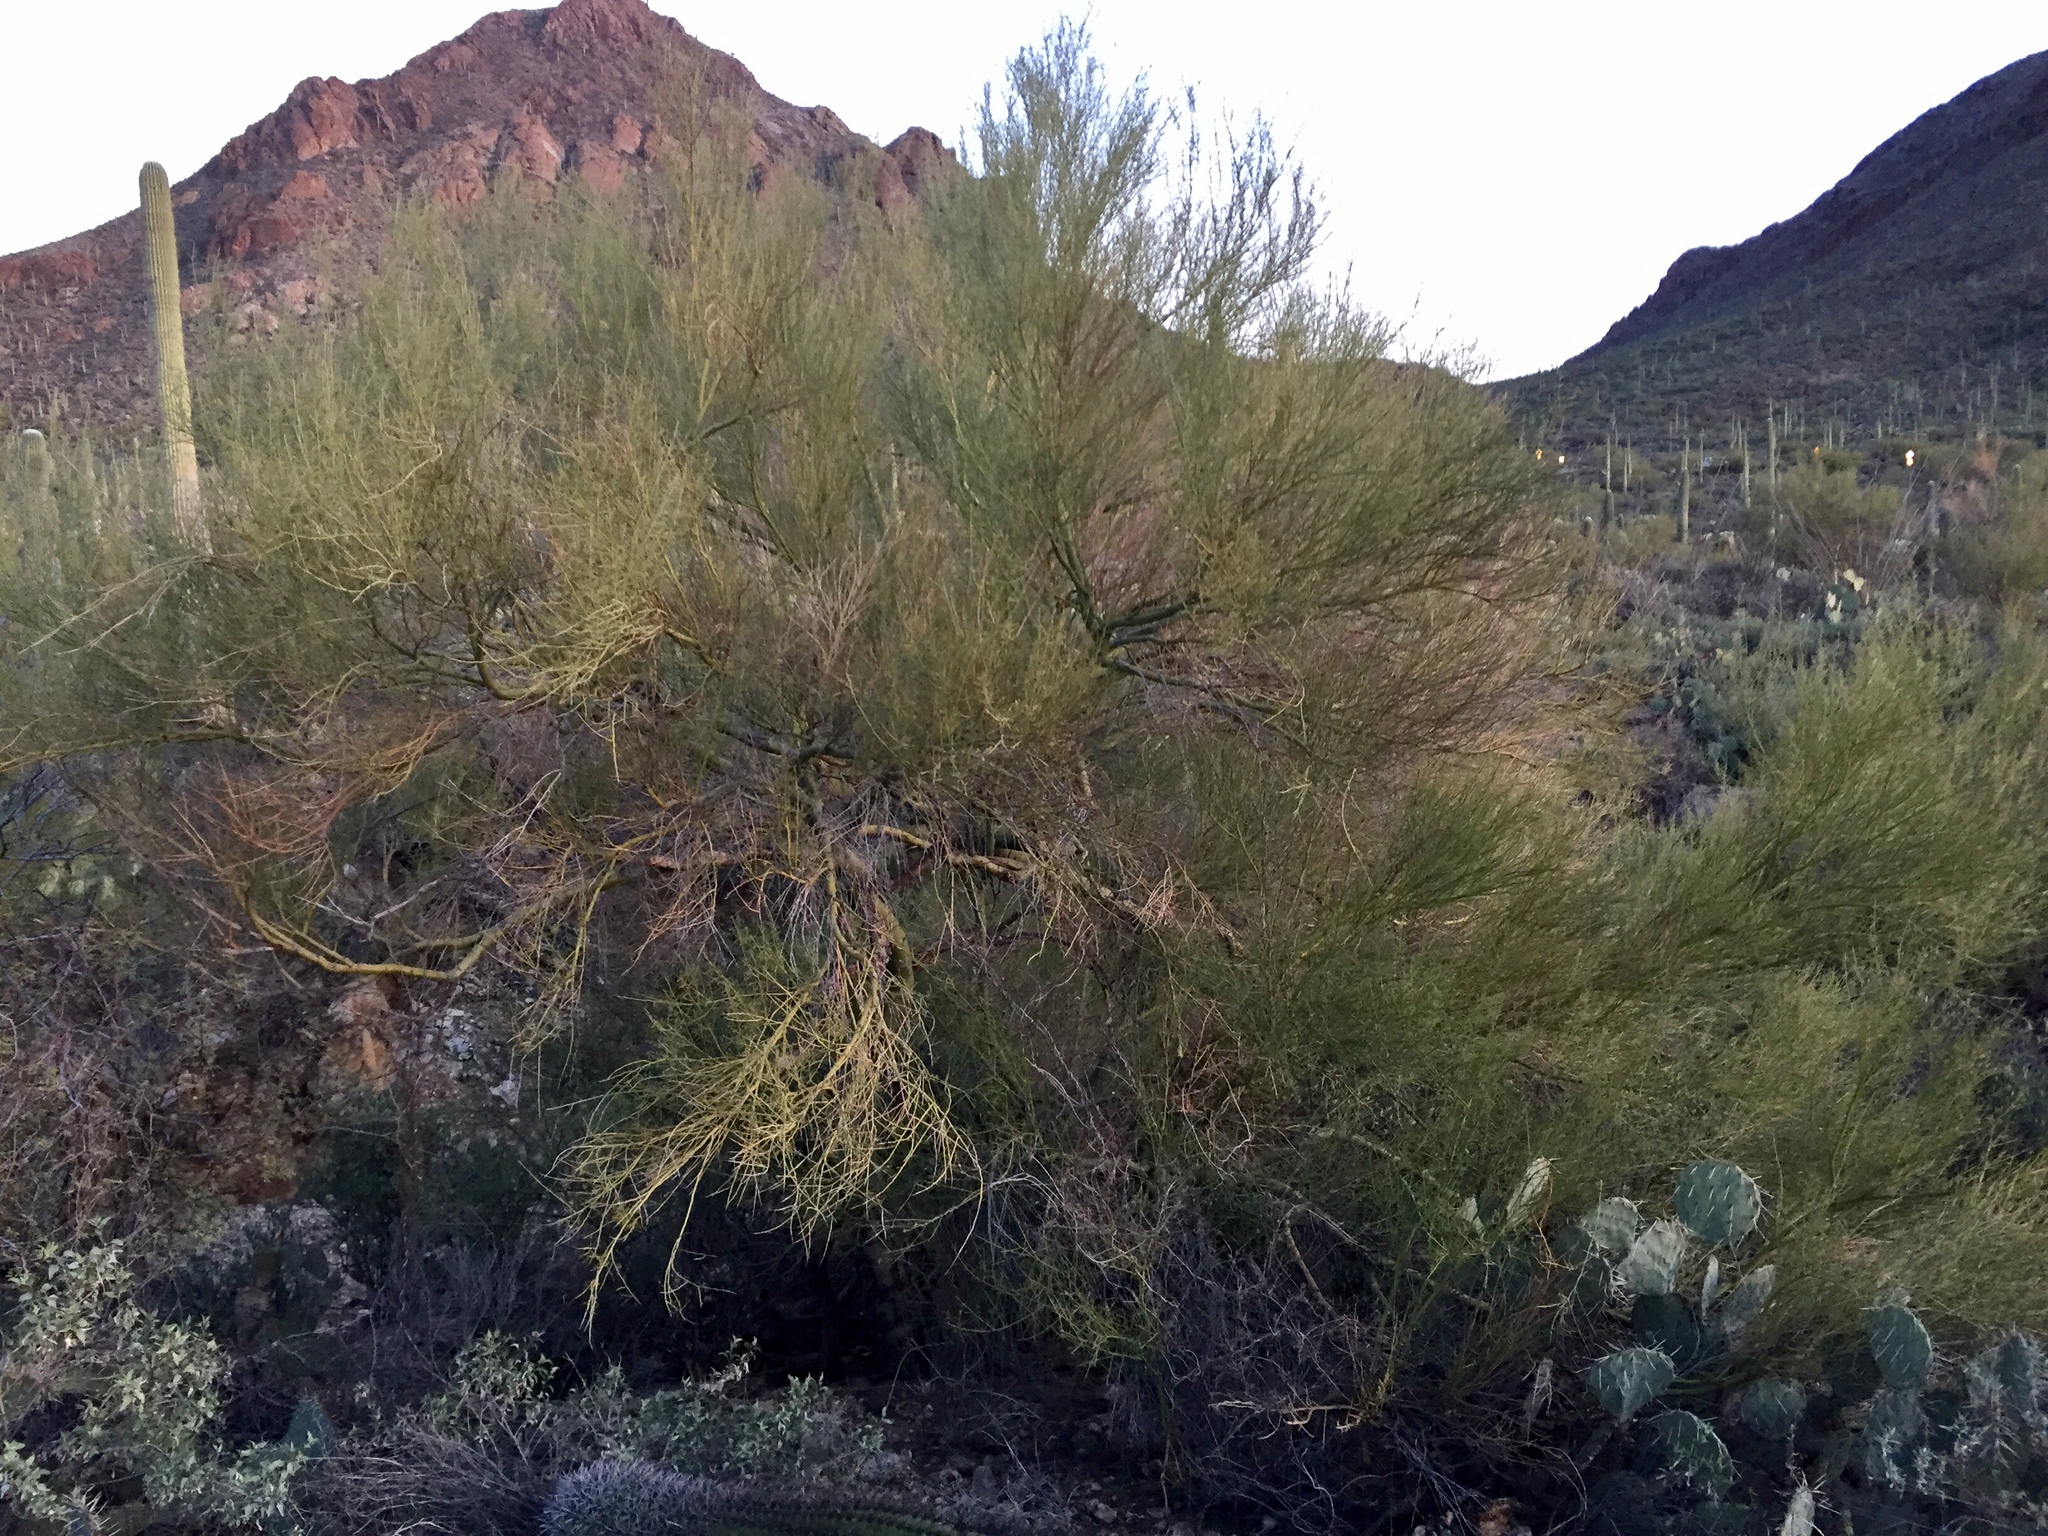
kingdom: Plantae
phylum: Tracheophyta
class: Magnoliopsida
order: Fabales
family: Fabaceae
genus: Parkinsonia
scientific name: Parkinsonia microphylla
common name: Yellow paloverde
